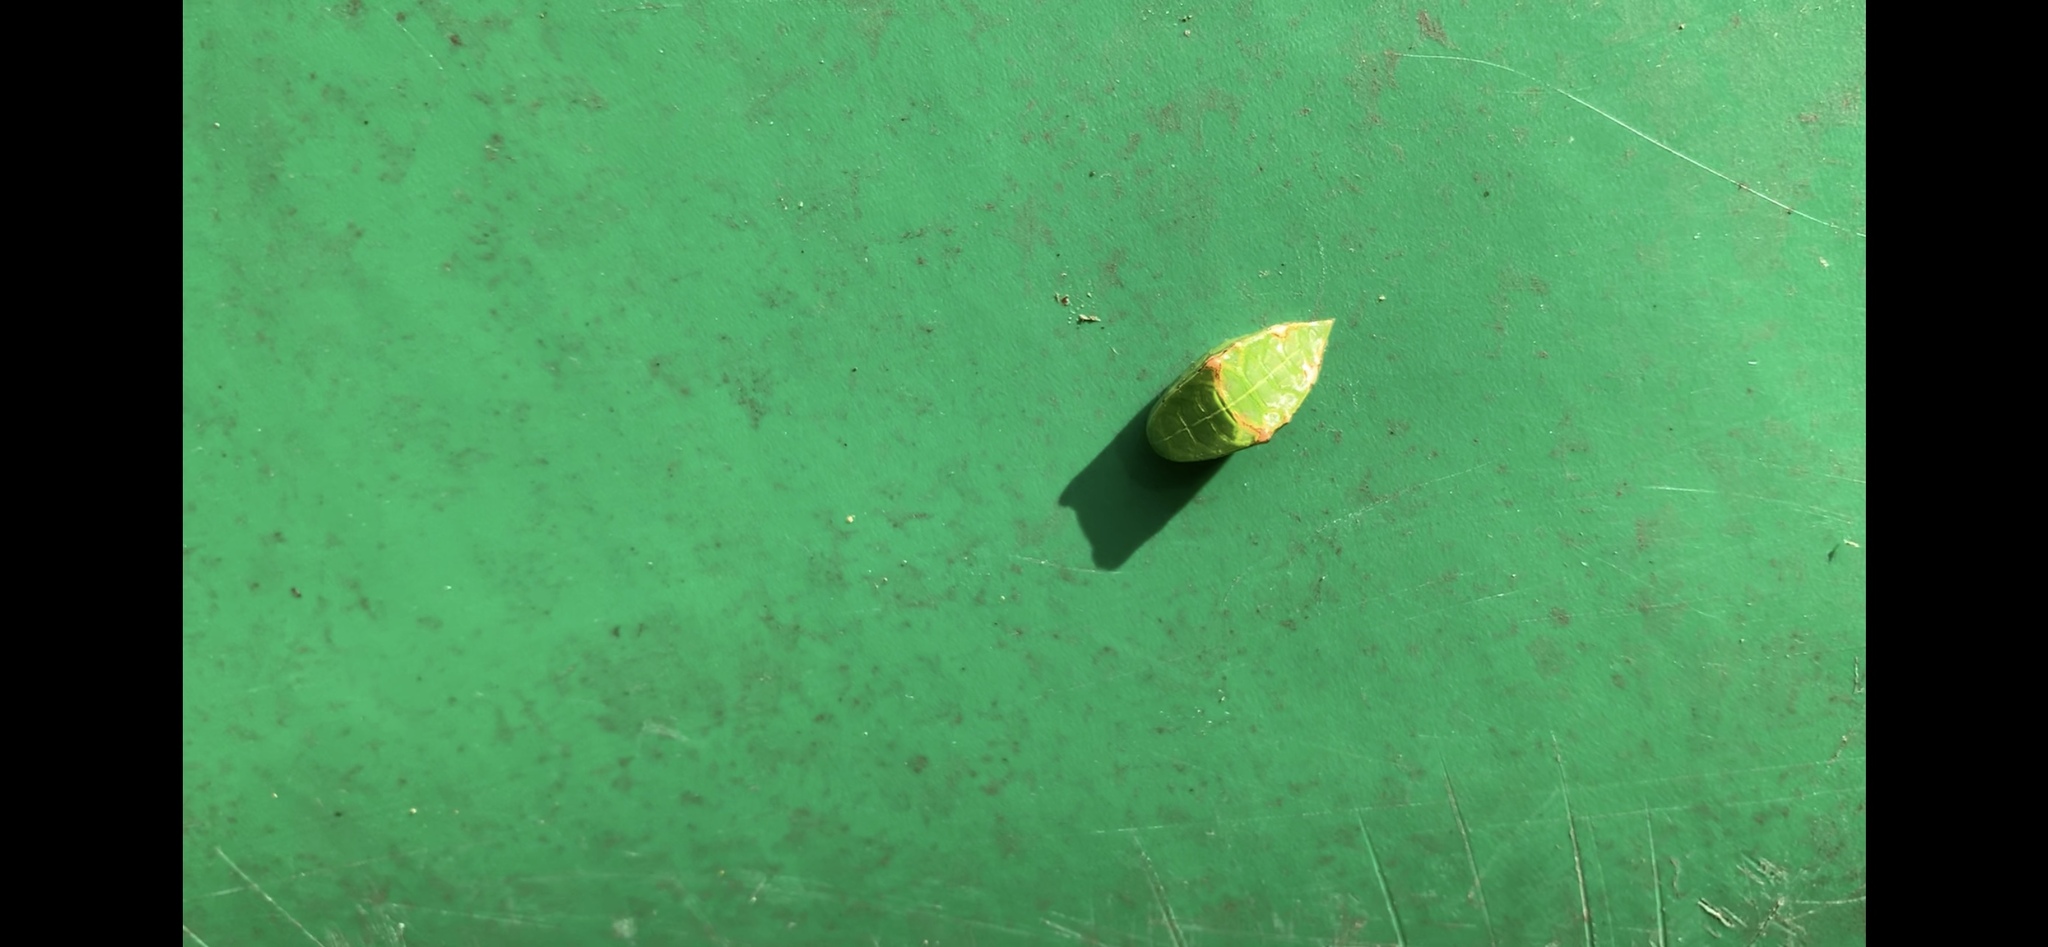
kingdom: Animalia
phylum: Arthropoda
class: Insecta
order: Lepidoptera
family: Limacodidae
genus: Prolimacodes
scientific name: Prolimacodes badia
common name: Skiff moth
